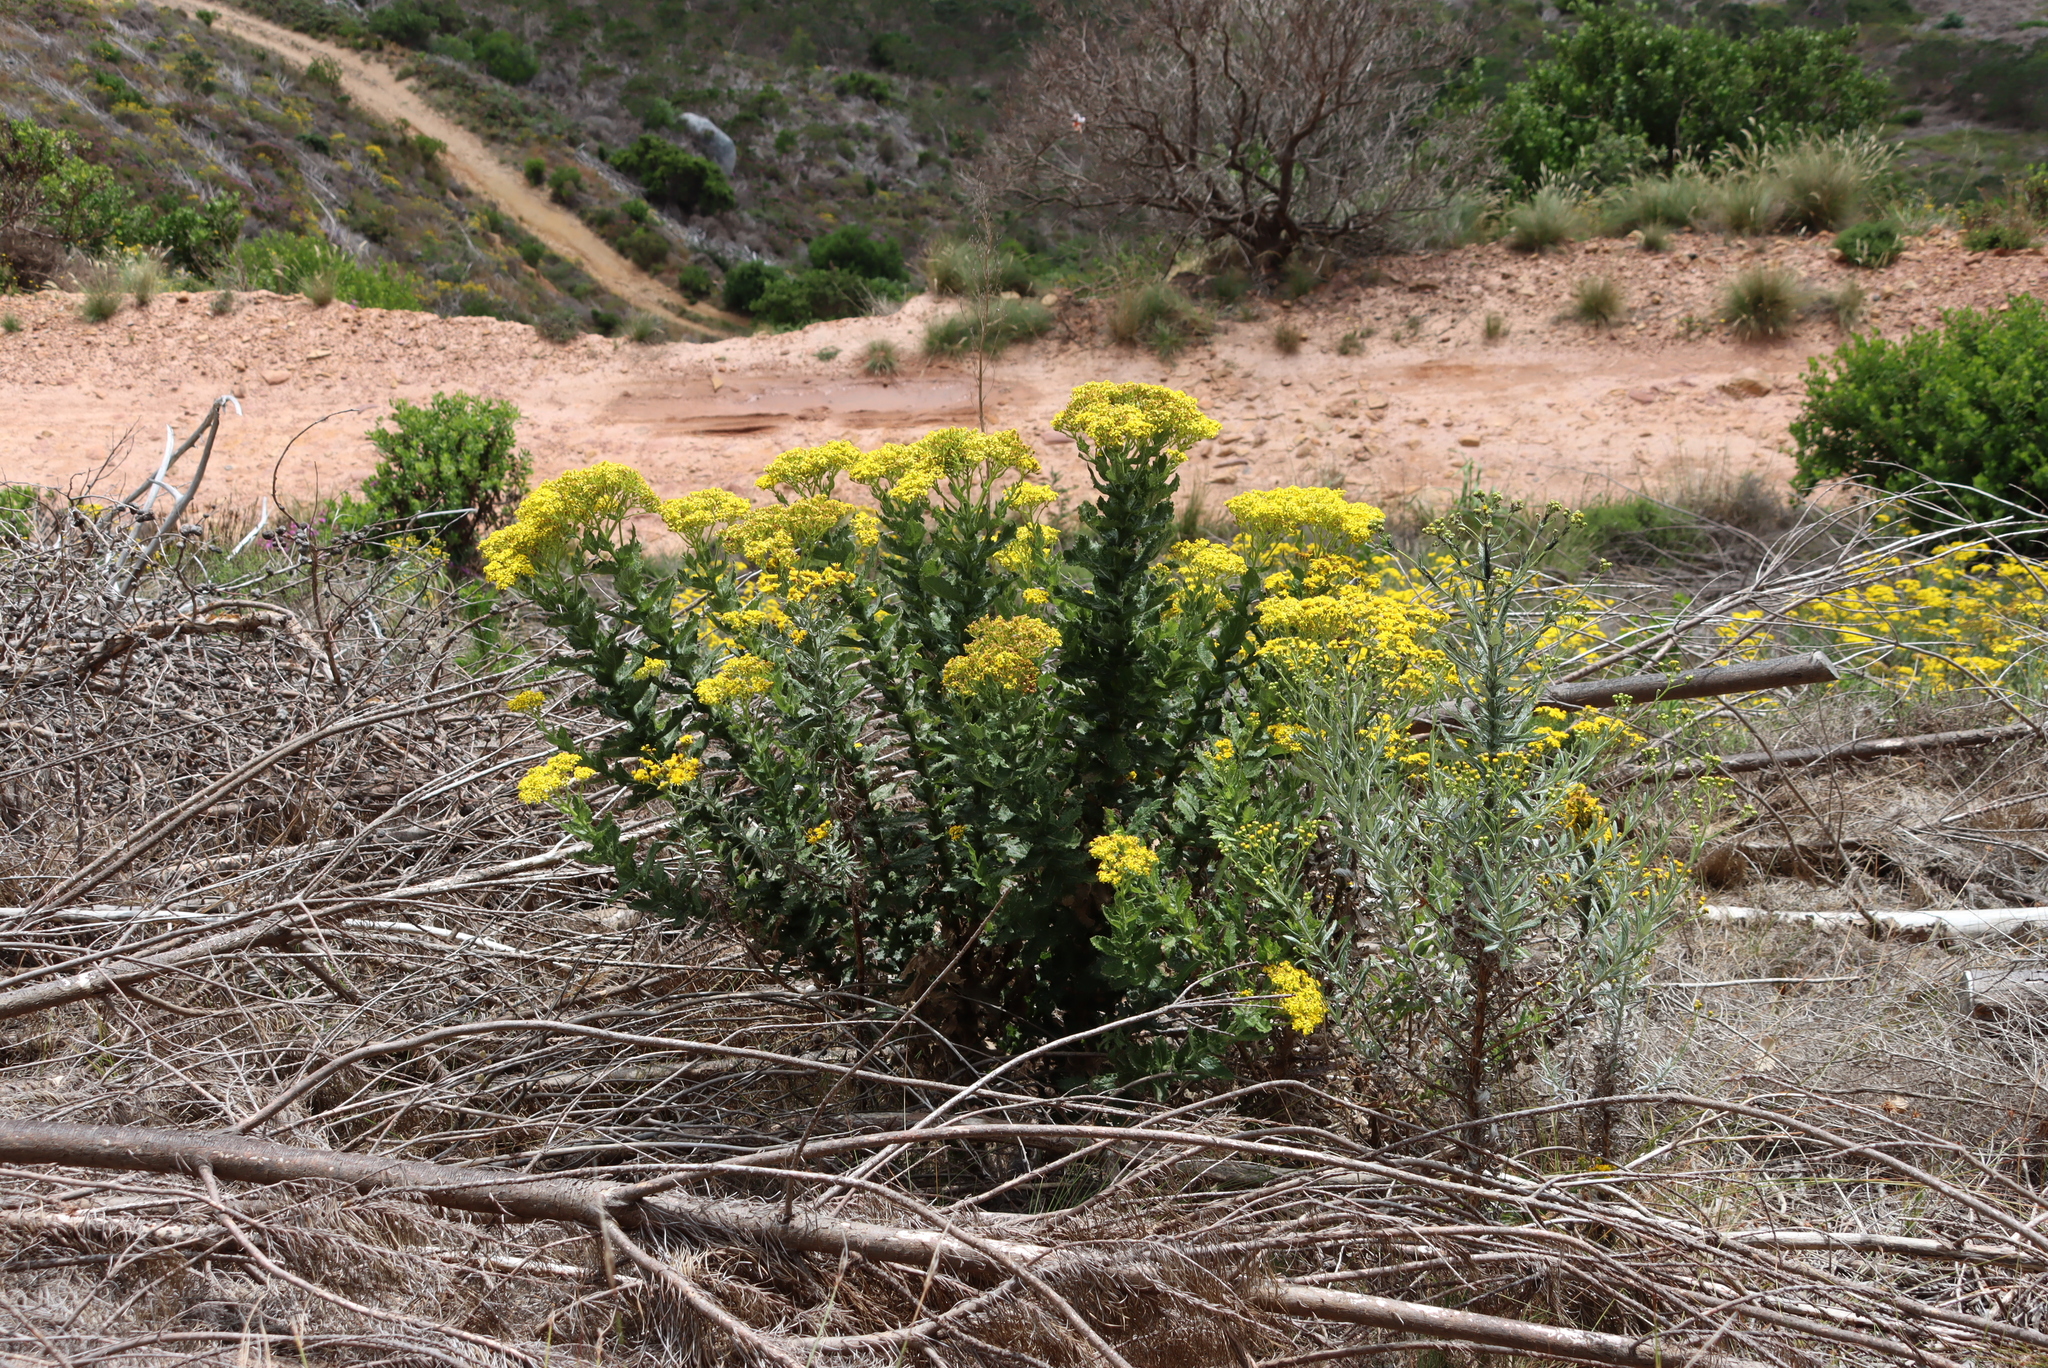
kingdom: Plantae
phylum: Tracheophyta
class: Magnoliopsida
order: Asterales
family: Asteraceae
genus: Senecio
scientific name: Senecio rigidus
